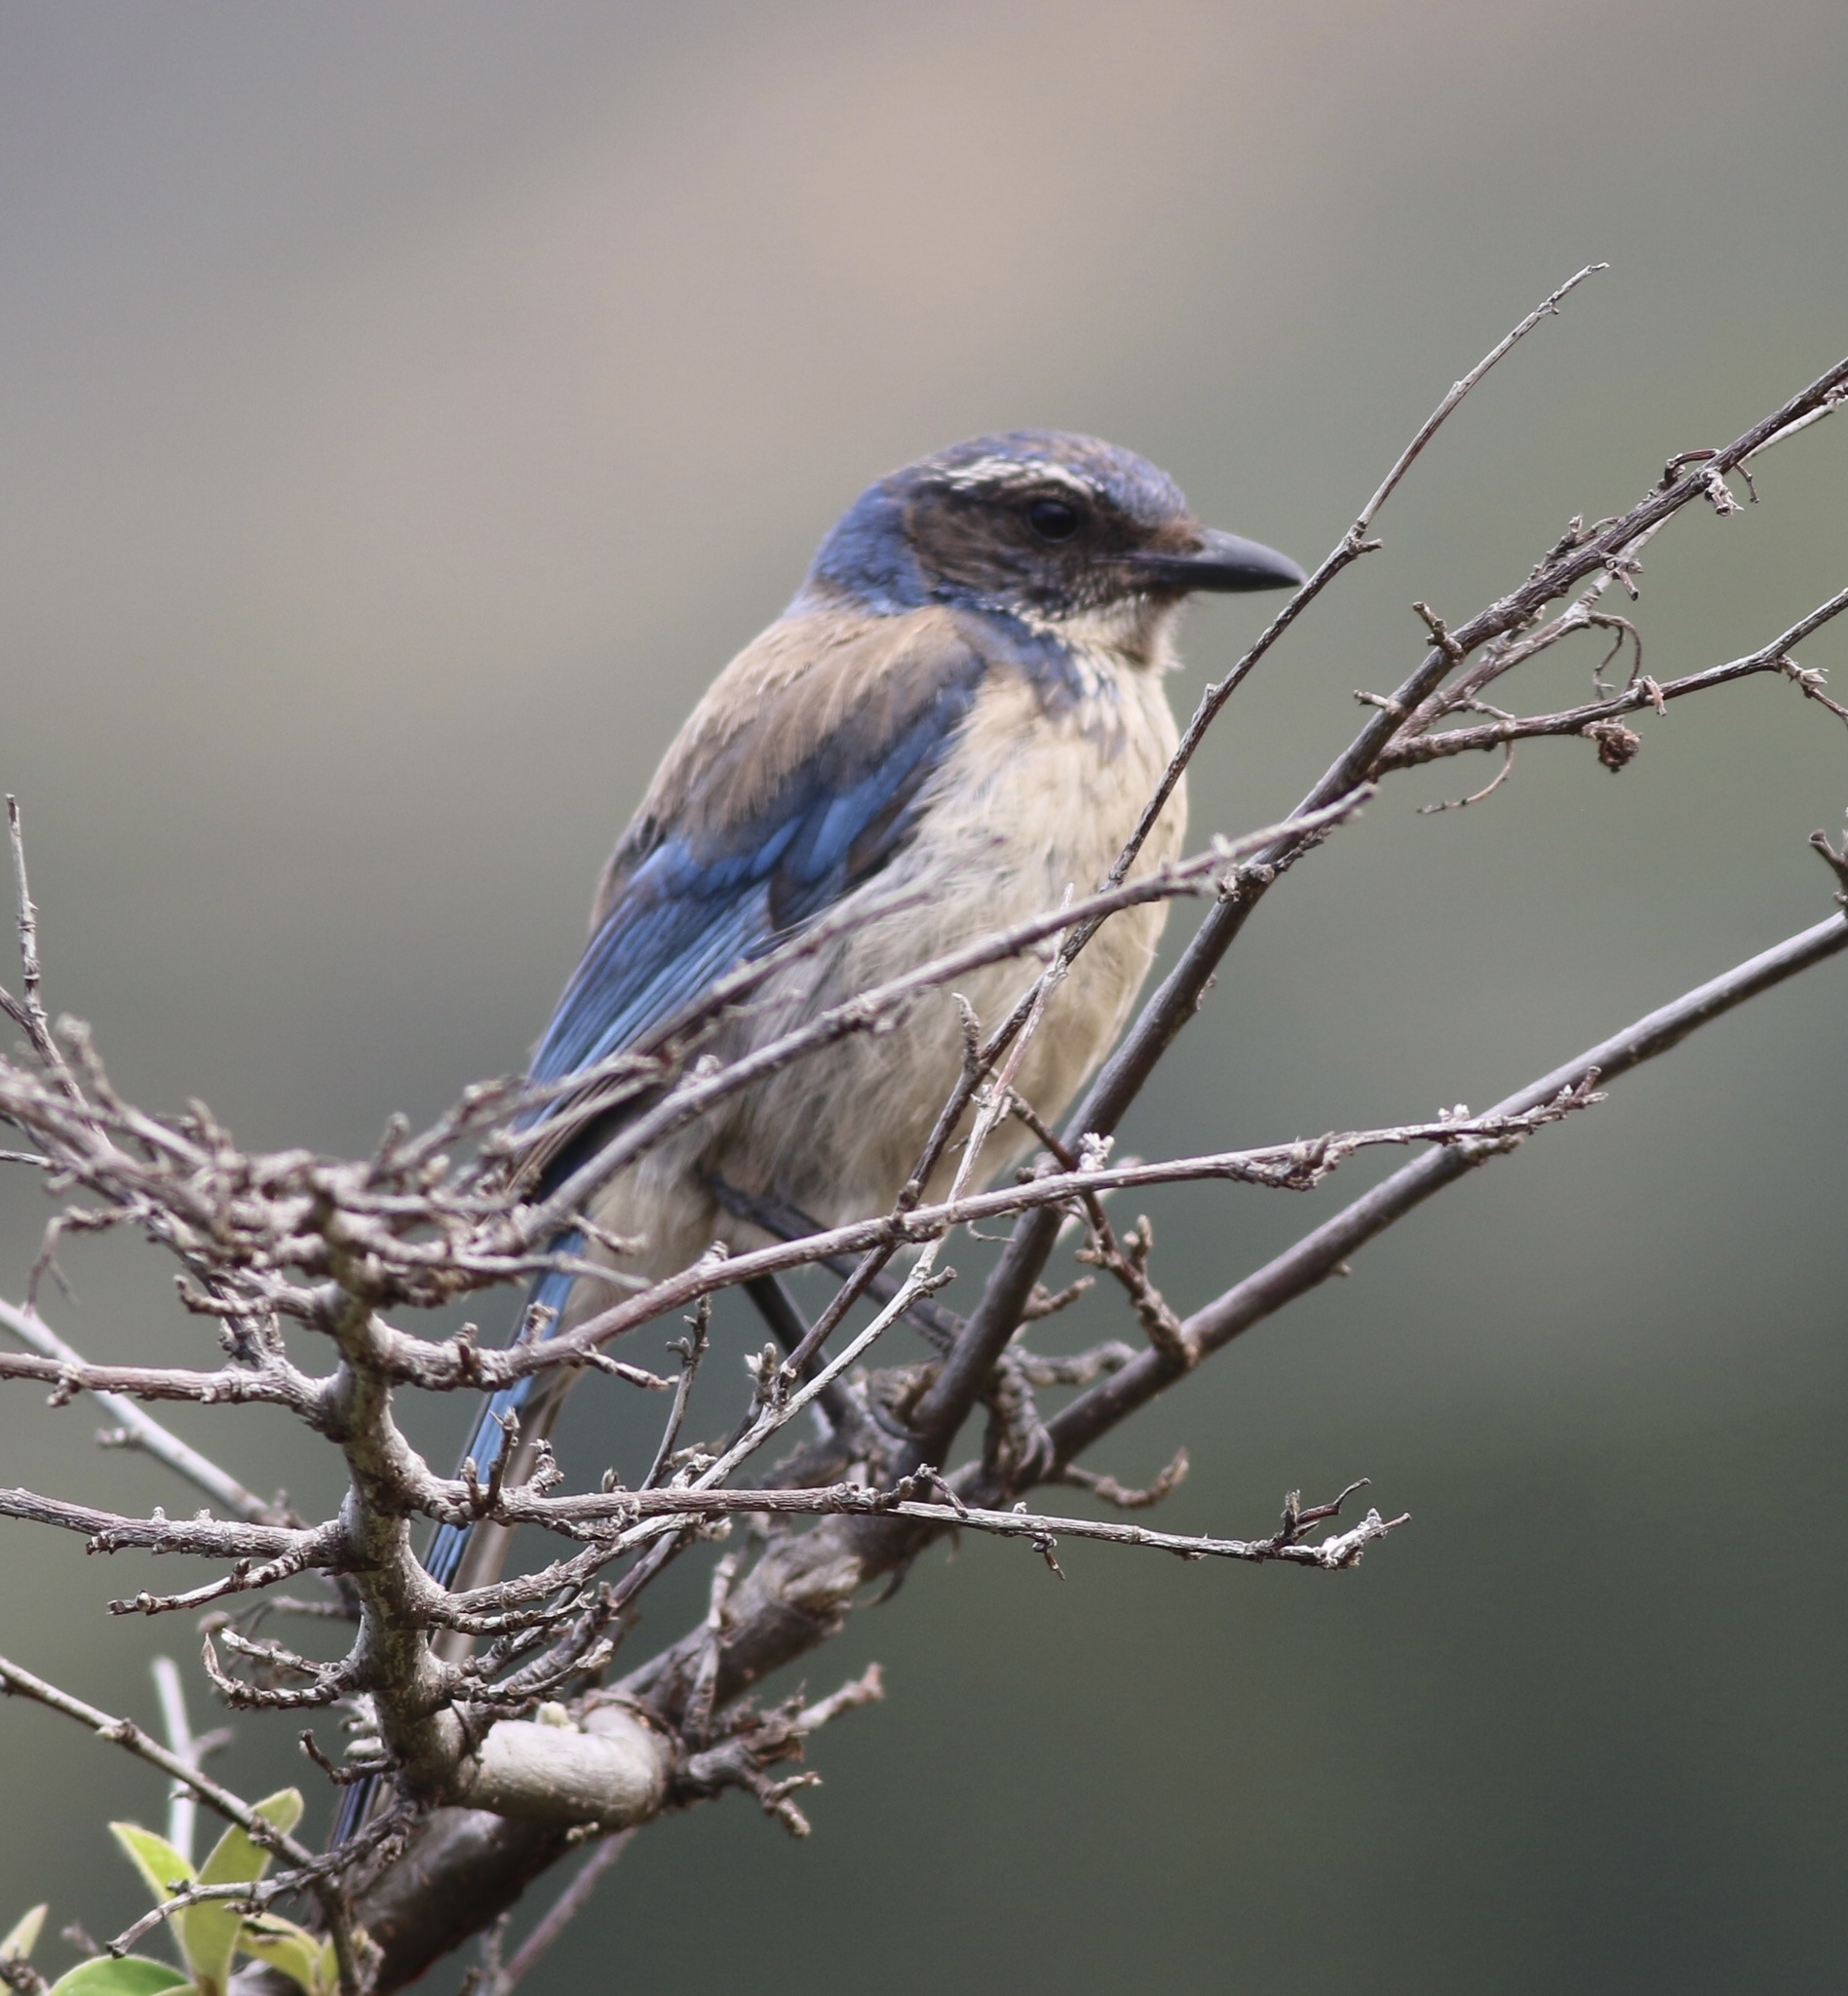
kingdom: Animalia
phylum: Chordata
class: Aves
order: Passeriformes
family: Corvidae
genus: Aphelocoma
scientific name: Aphelocoma californica
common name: California scrub-jay
